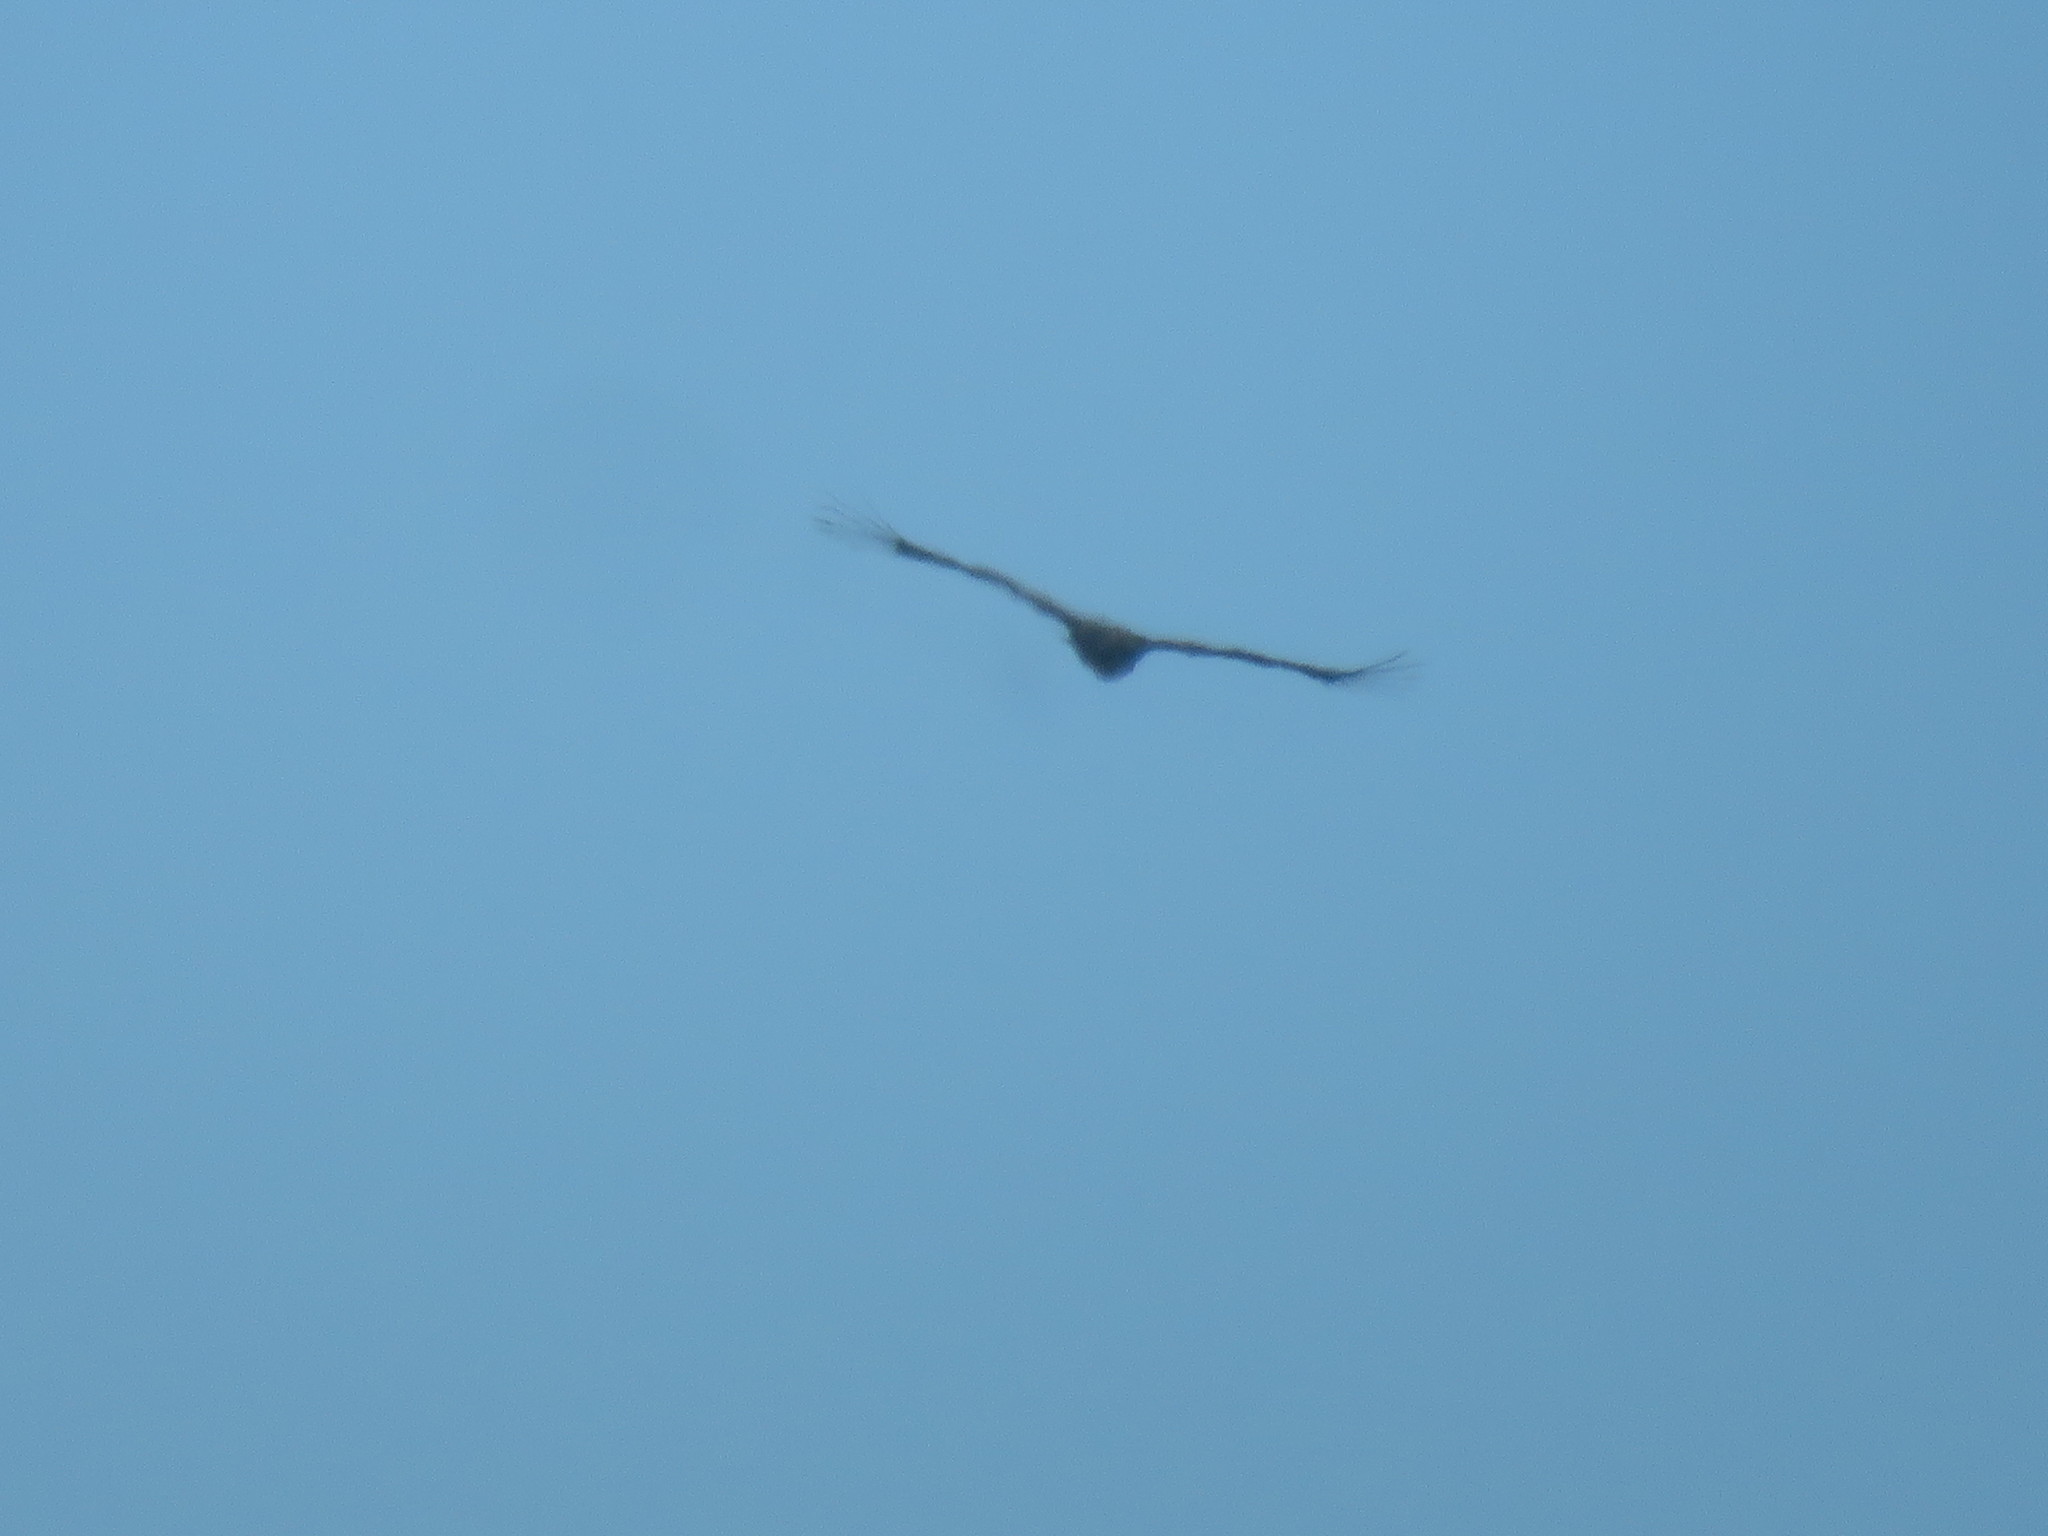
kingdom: Animalia
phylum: Chordata
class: Aves
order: Accipitriformes
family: Cathartidae
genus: Vultur
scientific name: Vultur gryphus
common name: Andean condor
